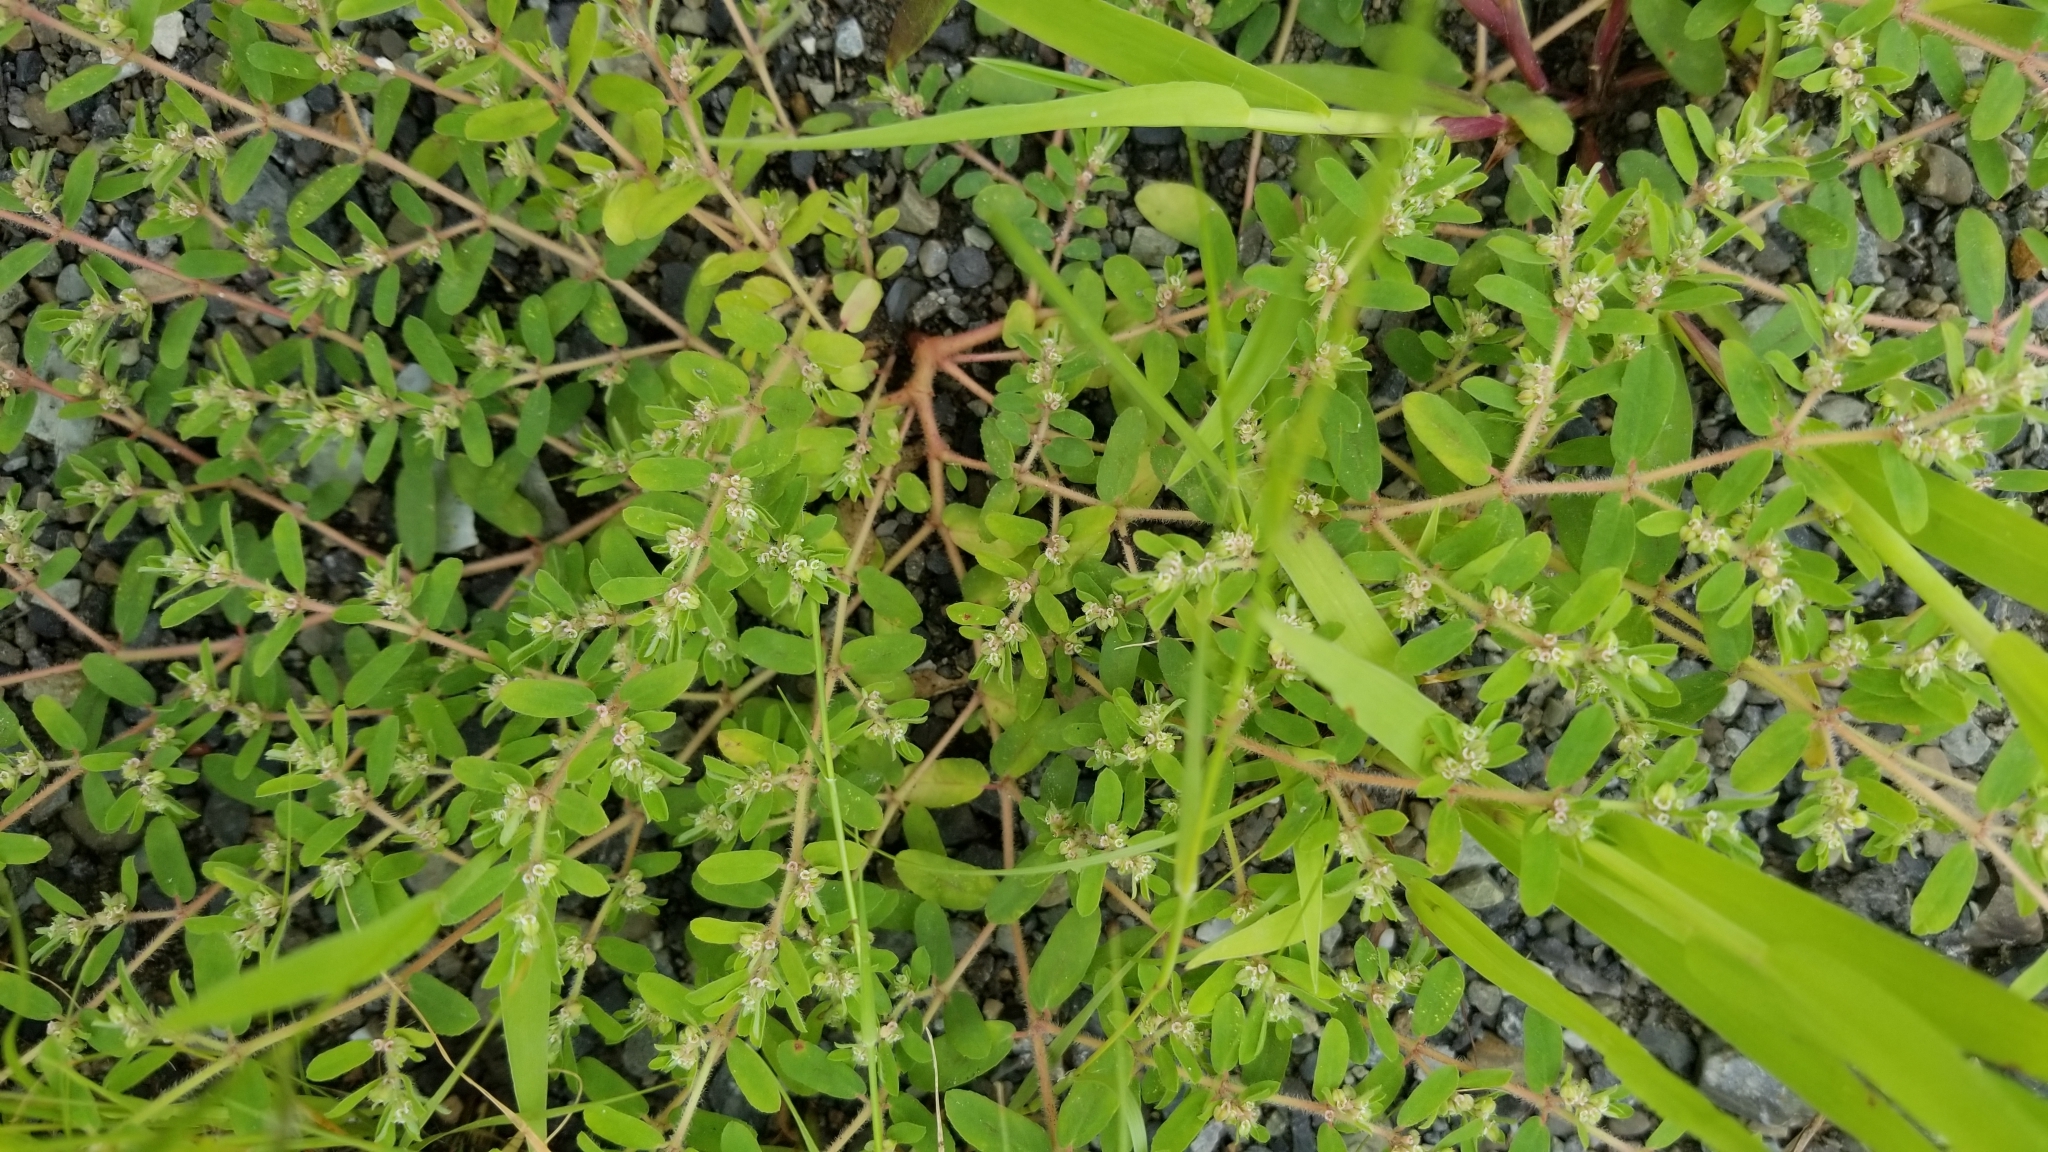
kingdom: Plantae
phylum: Tracheophyta
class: Magnoliopsida
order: Malpighiales
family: Euphorbiaceae
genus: Euphorbia
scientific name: Euphorbia maculata
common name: Spotted spurge
